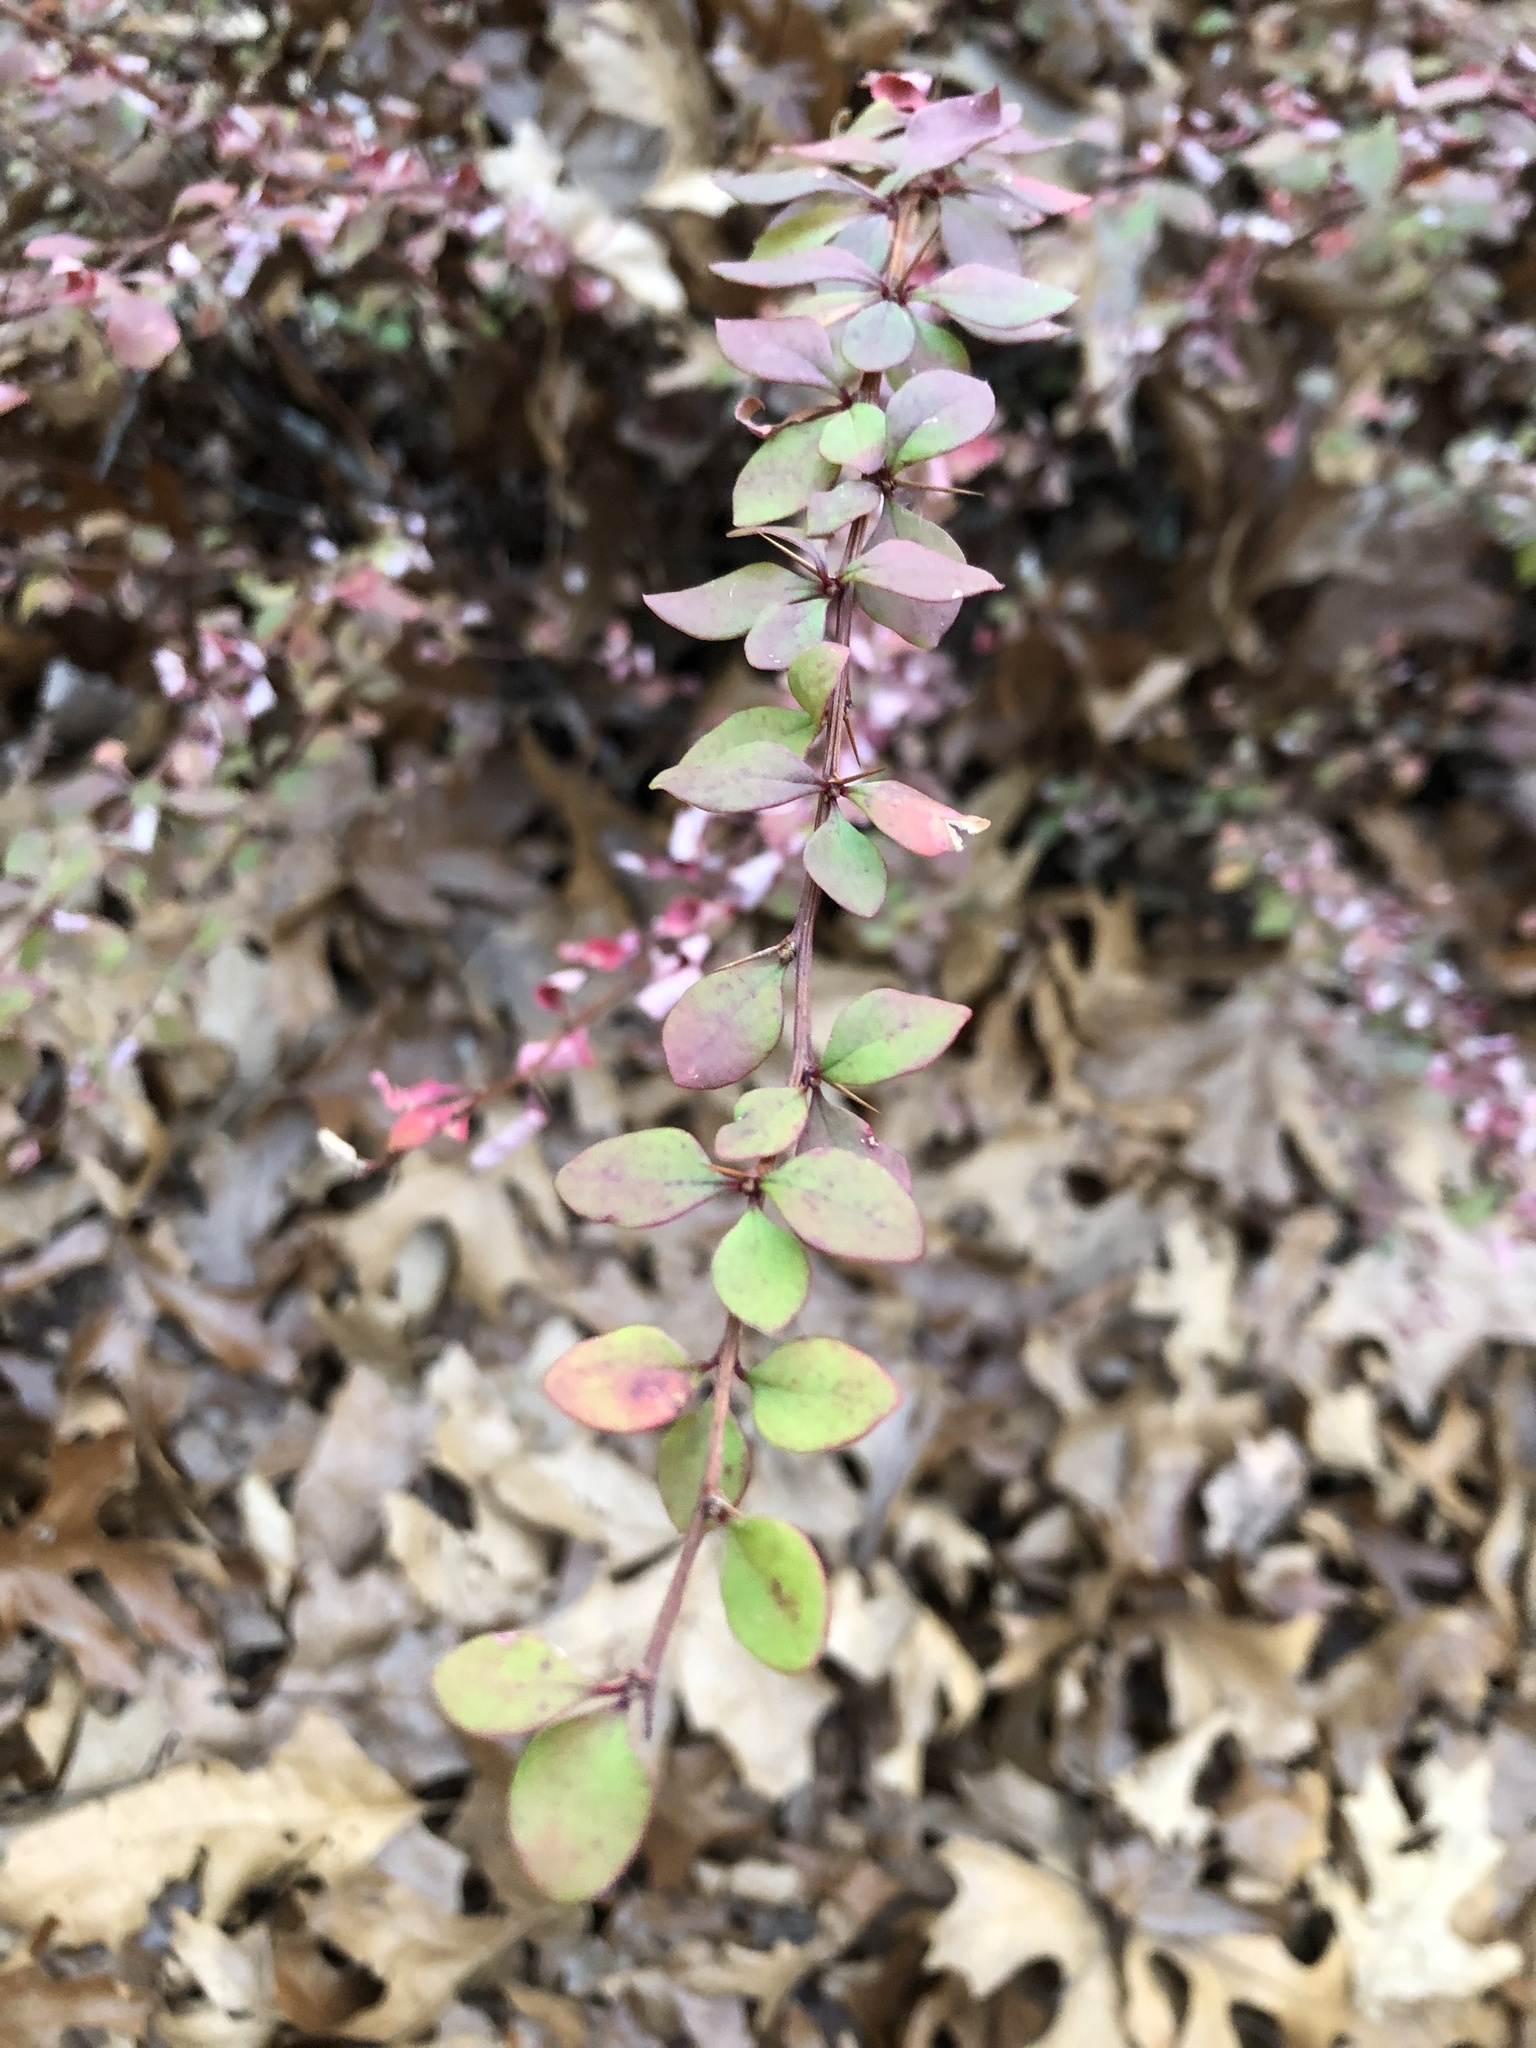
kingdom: Plantae
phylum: Tracheophyta
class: Magnoliopsida
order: Ranunculales
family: Berberidaceae
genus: Berberis
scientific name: Berberis thunbergii
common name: Japanese barberry
